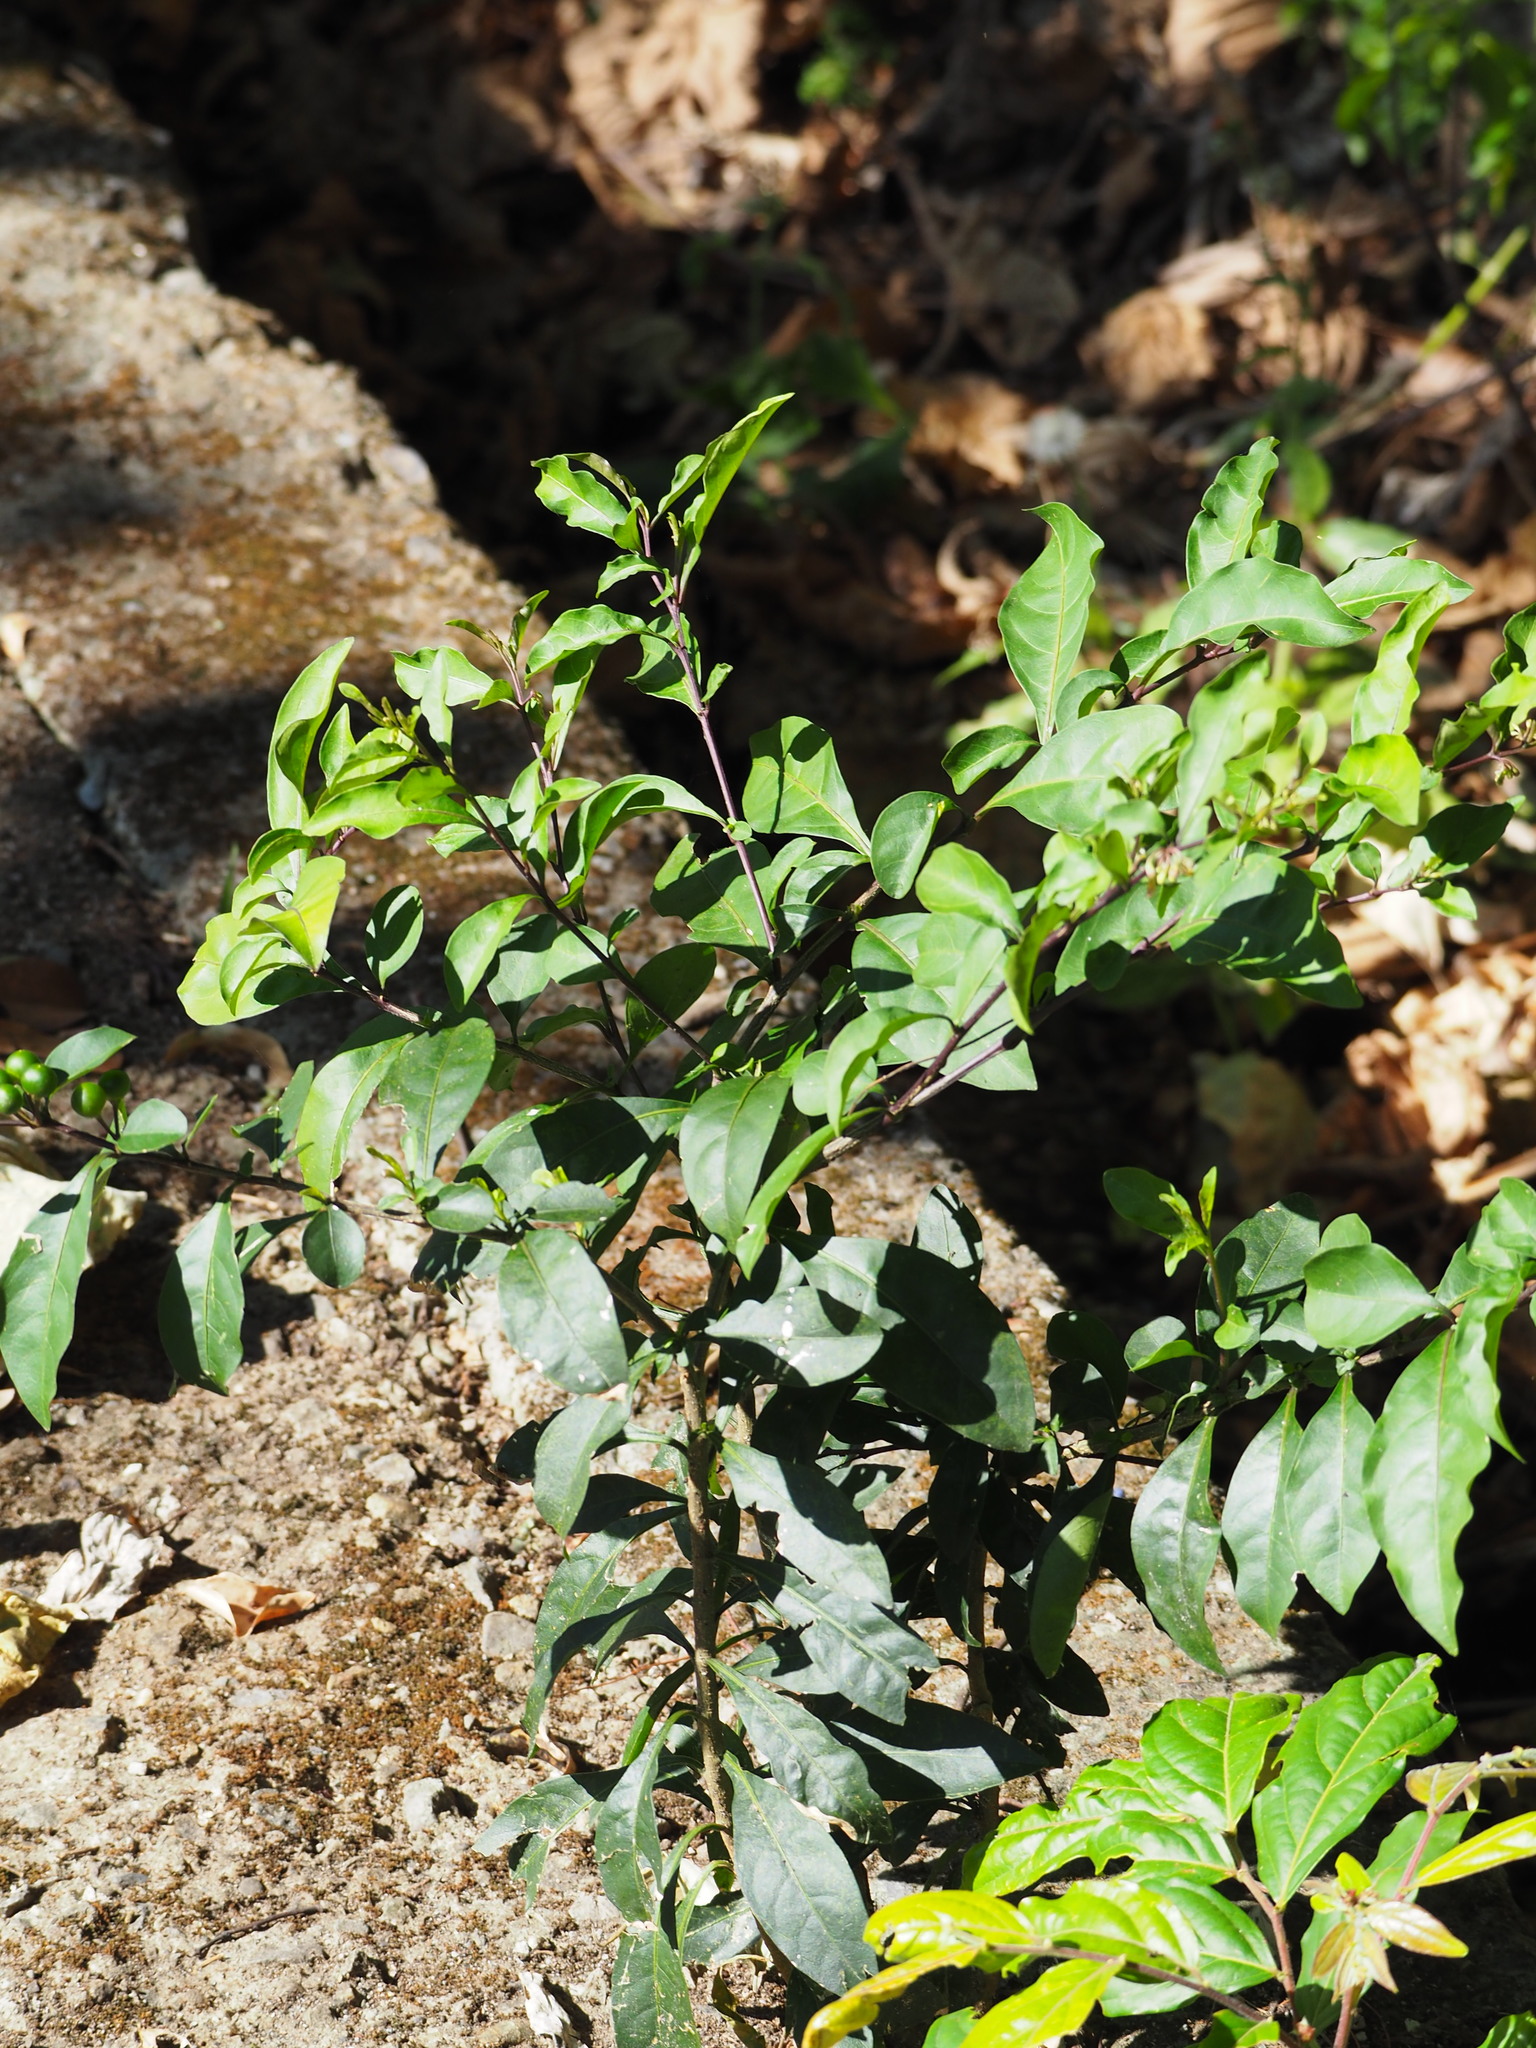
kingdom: Plantae
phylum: Tracheophyta
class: Magnoliopsida
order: Solanales
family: Solanaceae
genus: Solanum
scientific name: Solanum diphyllum
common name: Twoleaf nightshade
